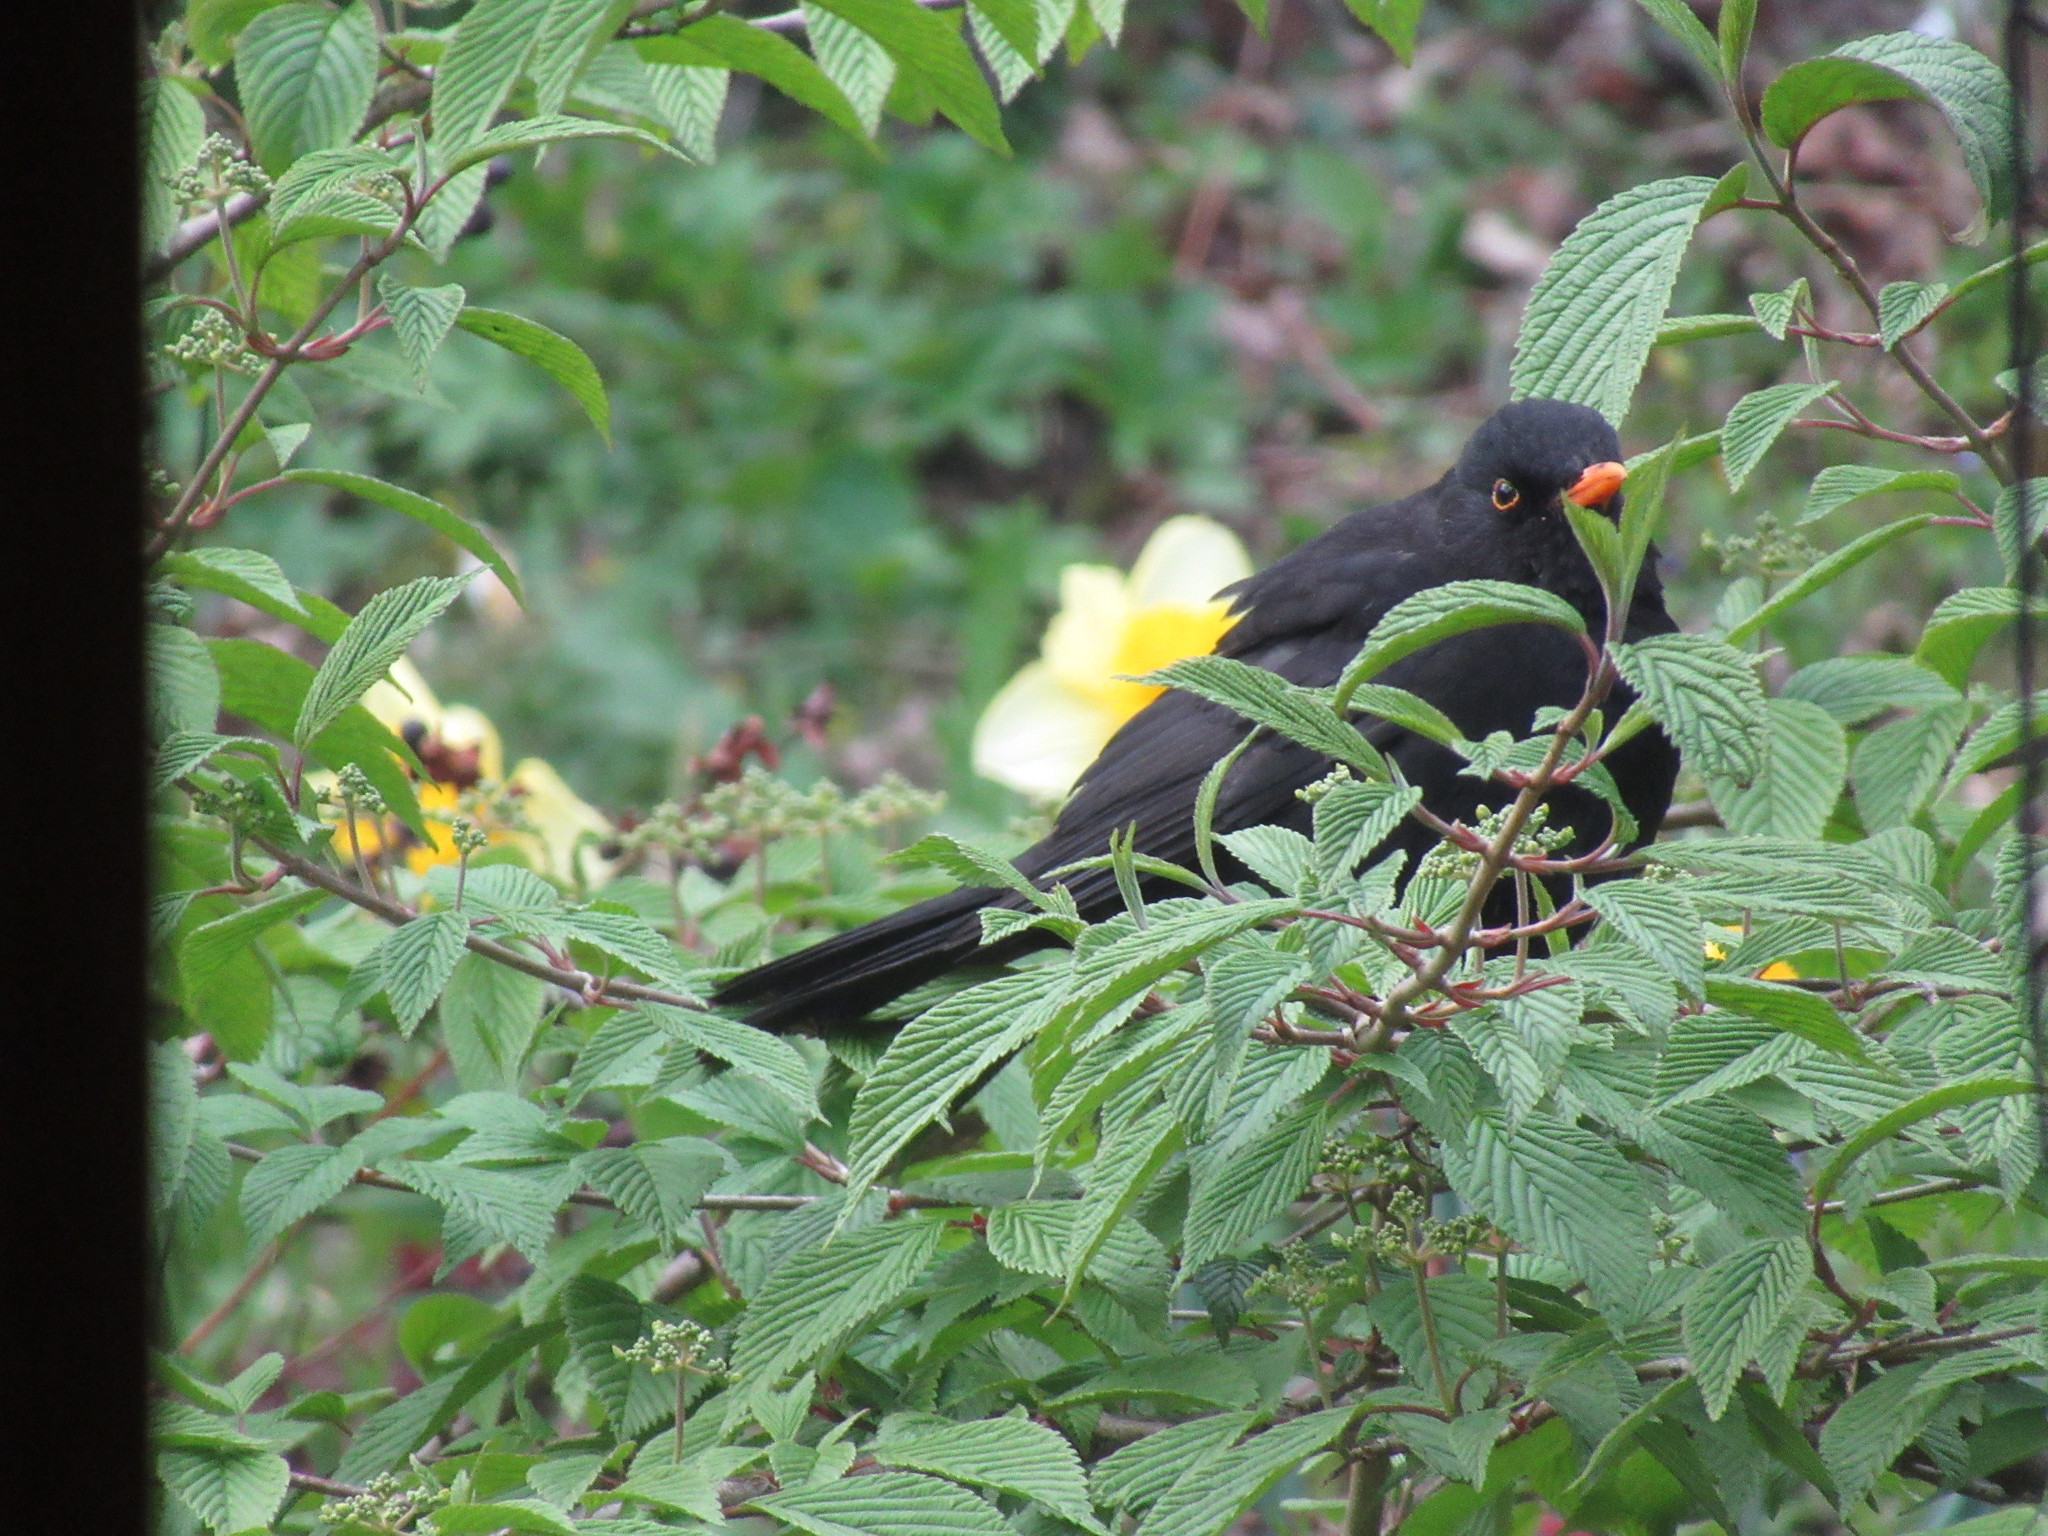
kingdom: Animalia
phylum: Chordata
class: Aves
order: Passeriformes
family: Turdidae
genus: Turdus
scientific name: Turdus merula
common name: Common blackbird
